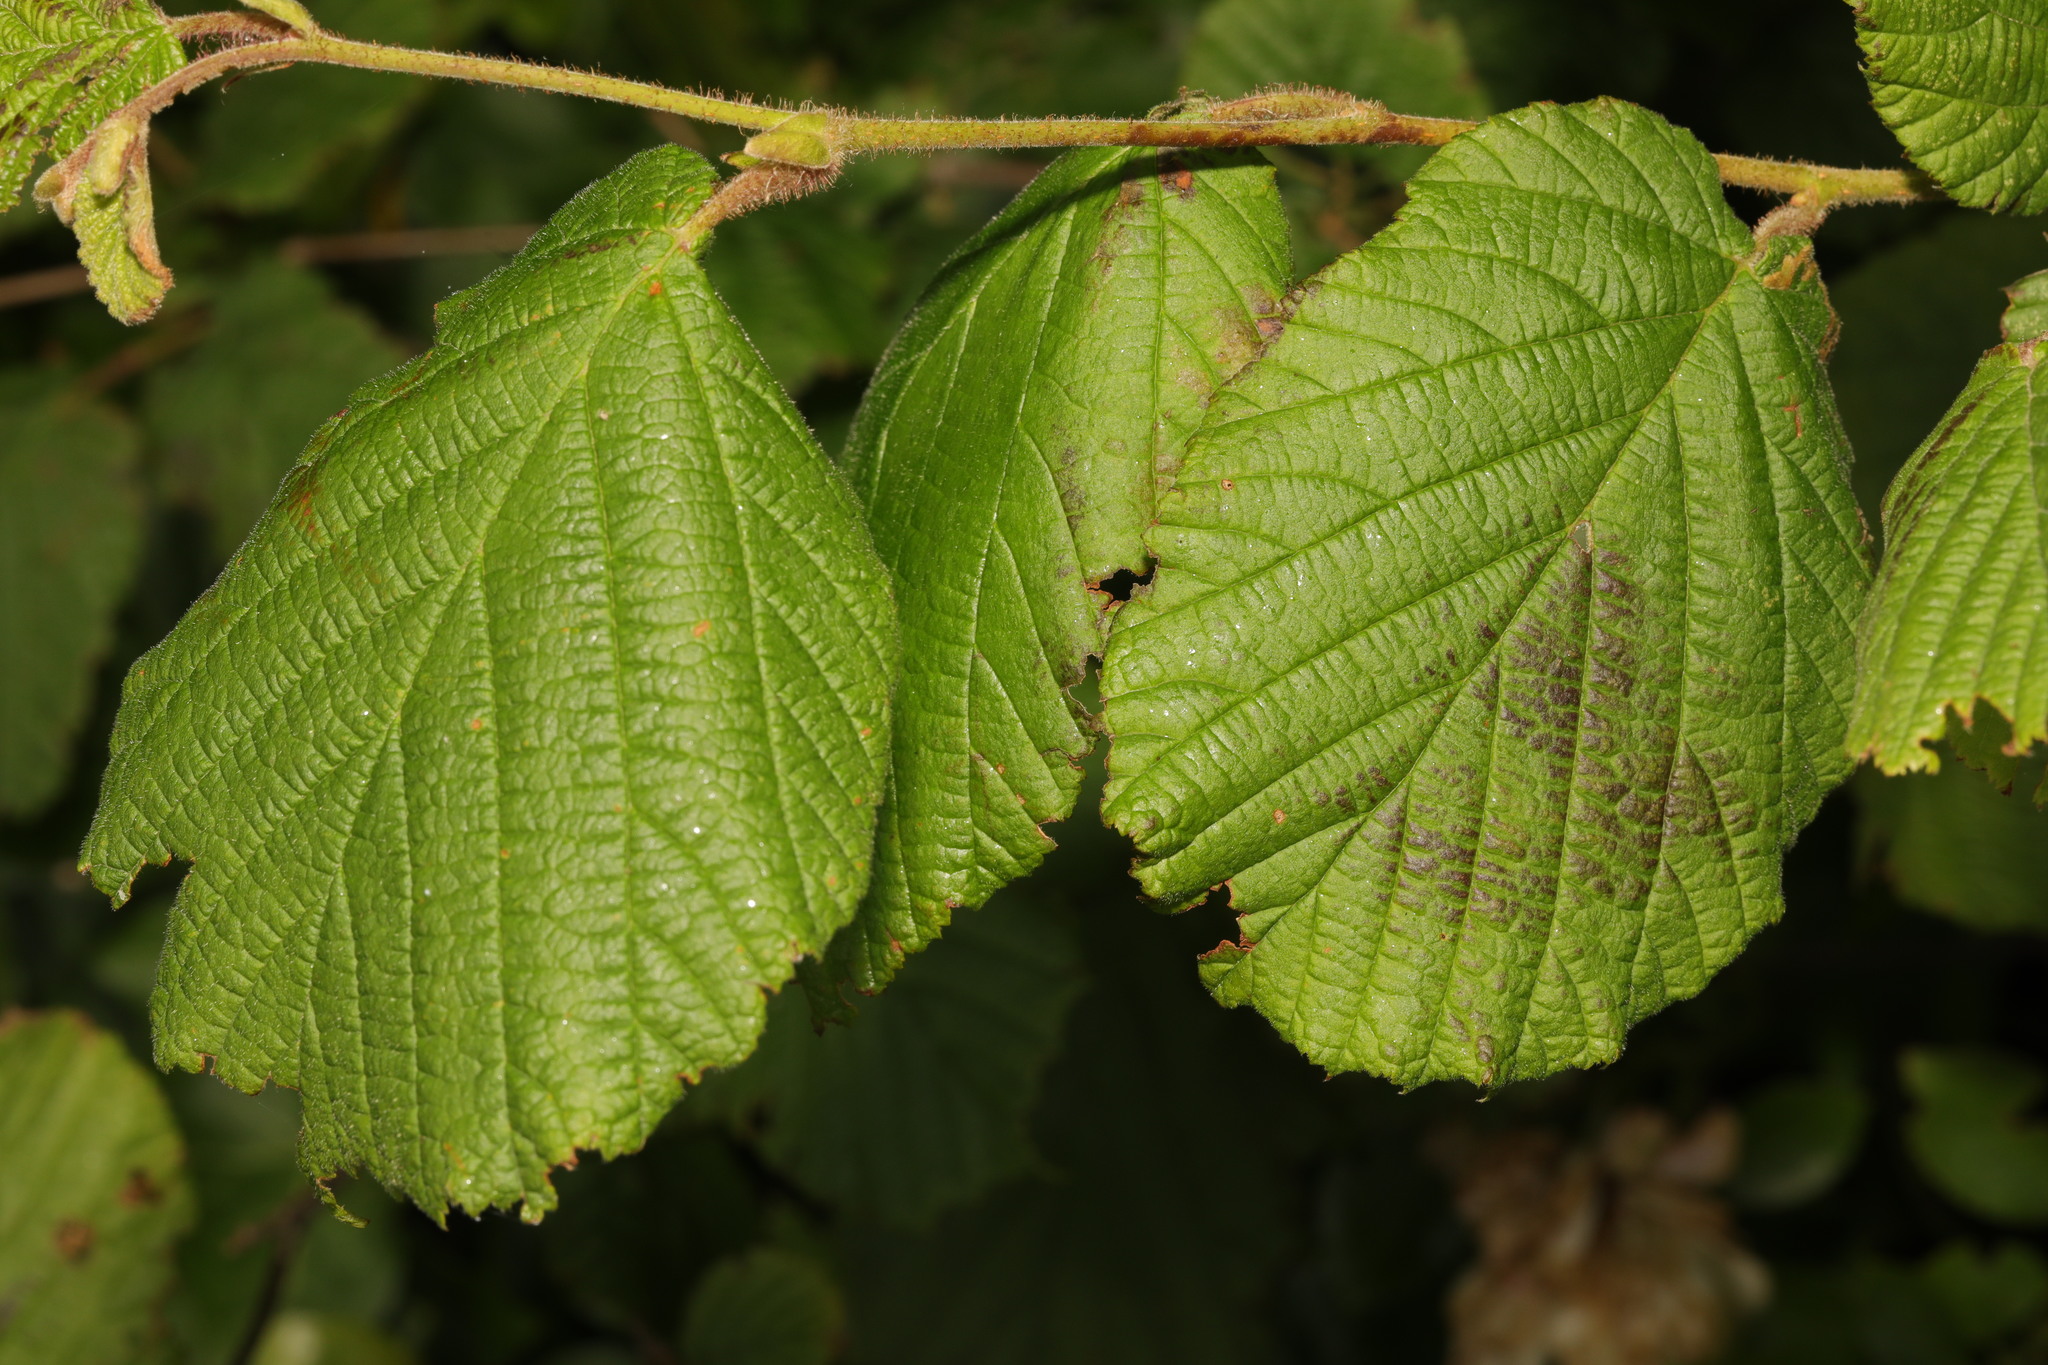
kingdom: Plantae
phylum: Tracheophyta
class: Magnoliopsida
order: Fagales
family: Betulaceae
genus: Corylus
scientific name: Corylus avellana
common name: European hazel
